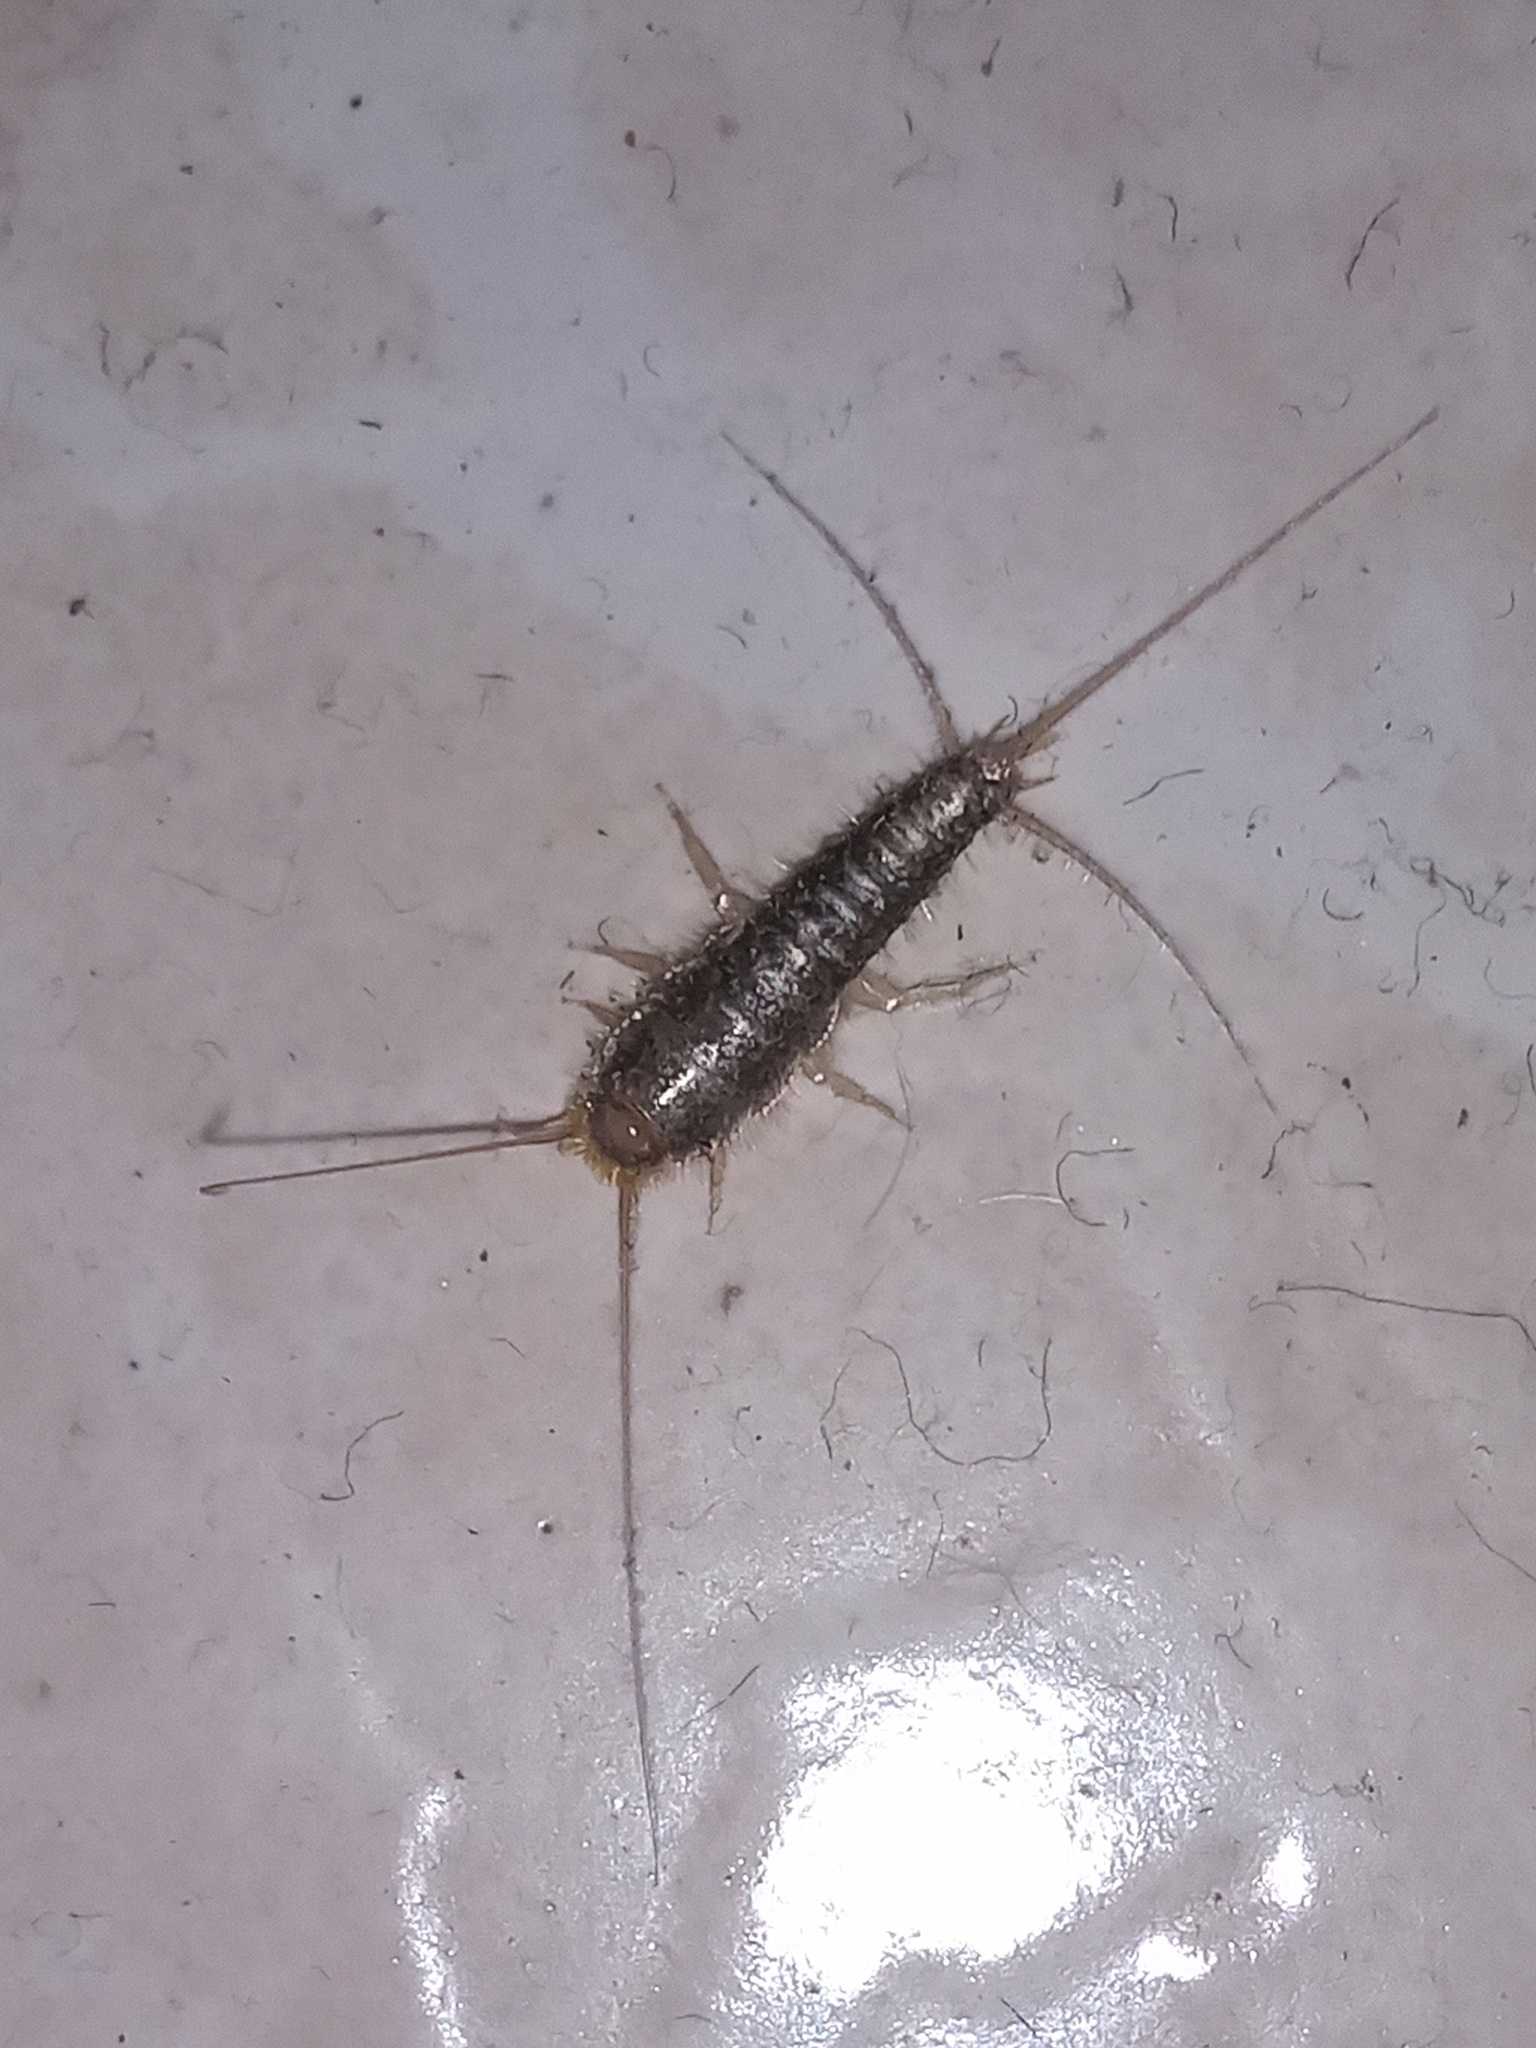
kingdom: Animalia
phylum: Arthropoda
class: Insecta
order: Zygentoma
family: Lepismatidae
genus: Ctenolepisma
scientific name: Ctenolepisma longicaudatum
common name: Silverfish
